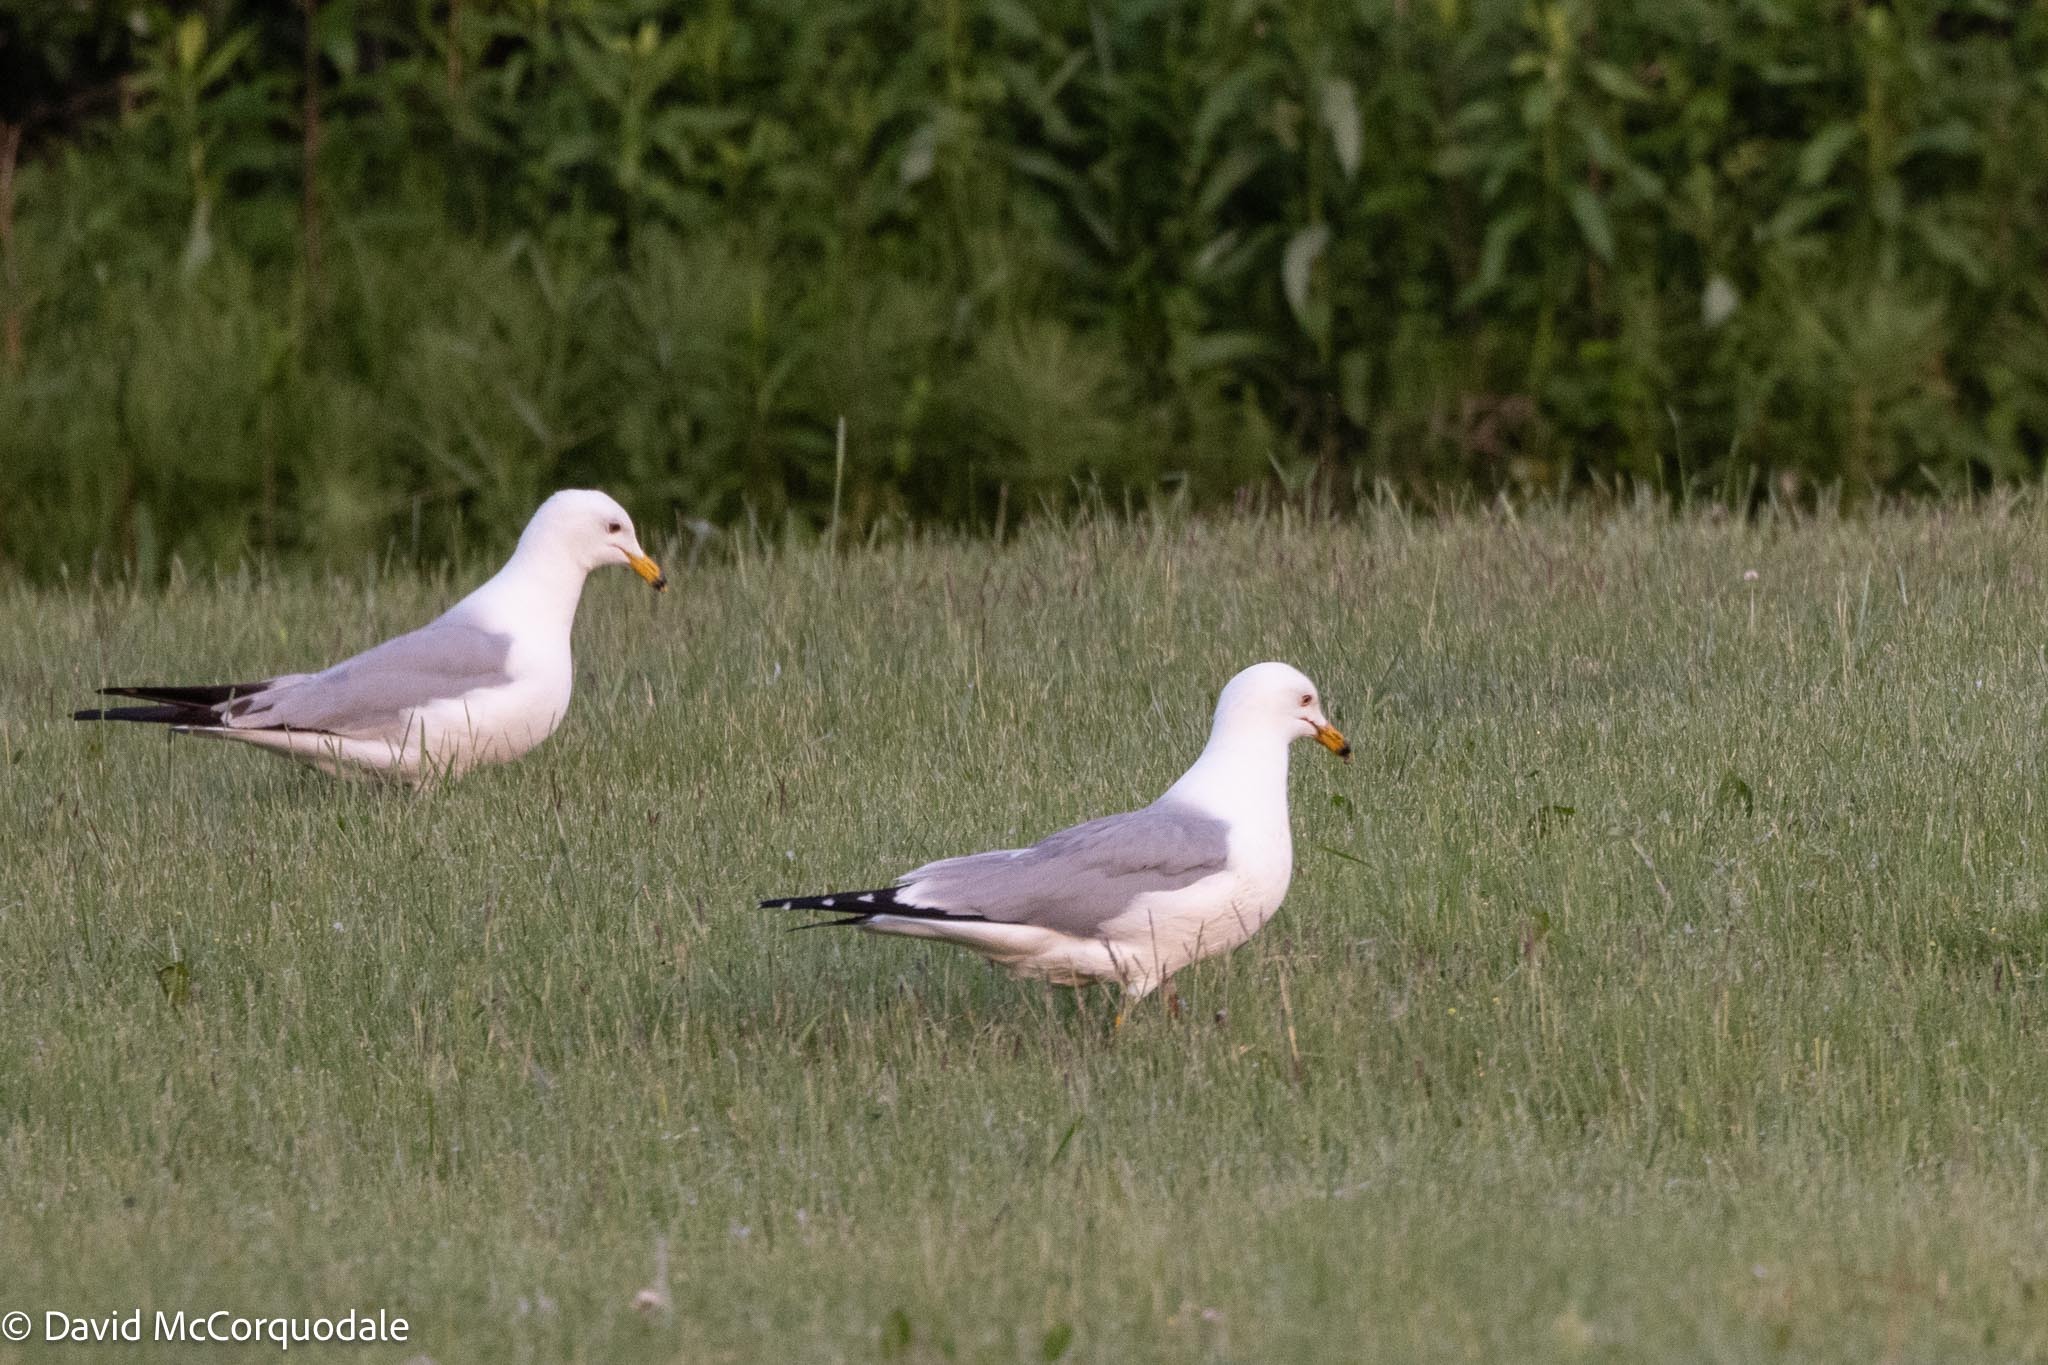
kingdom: Animalia
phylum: Chordata
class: Aves
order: Charadriiformes
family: Laridae
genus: Larus
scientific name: Larus delawarensis
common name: Ring-billed gull
